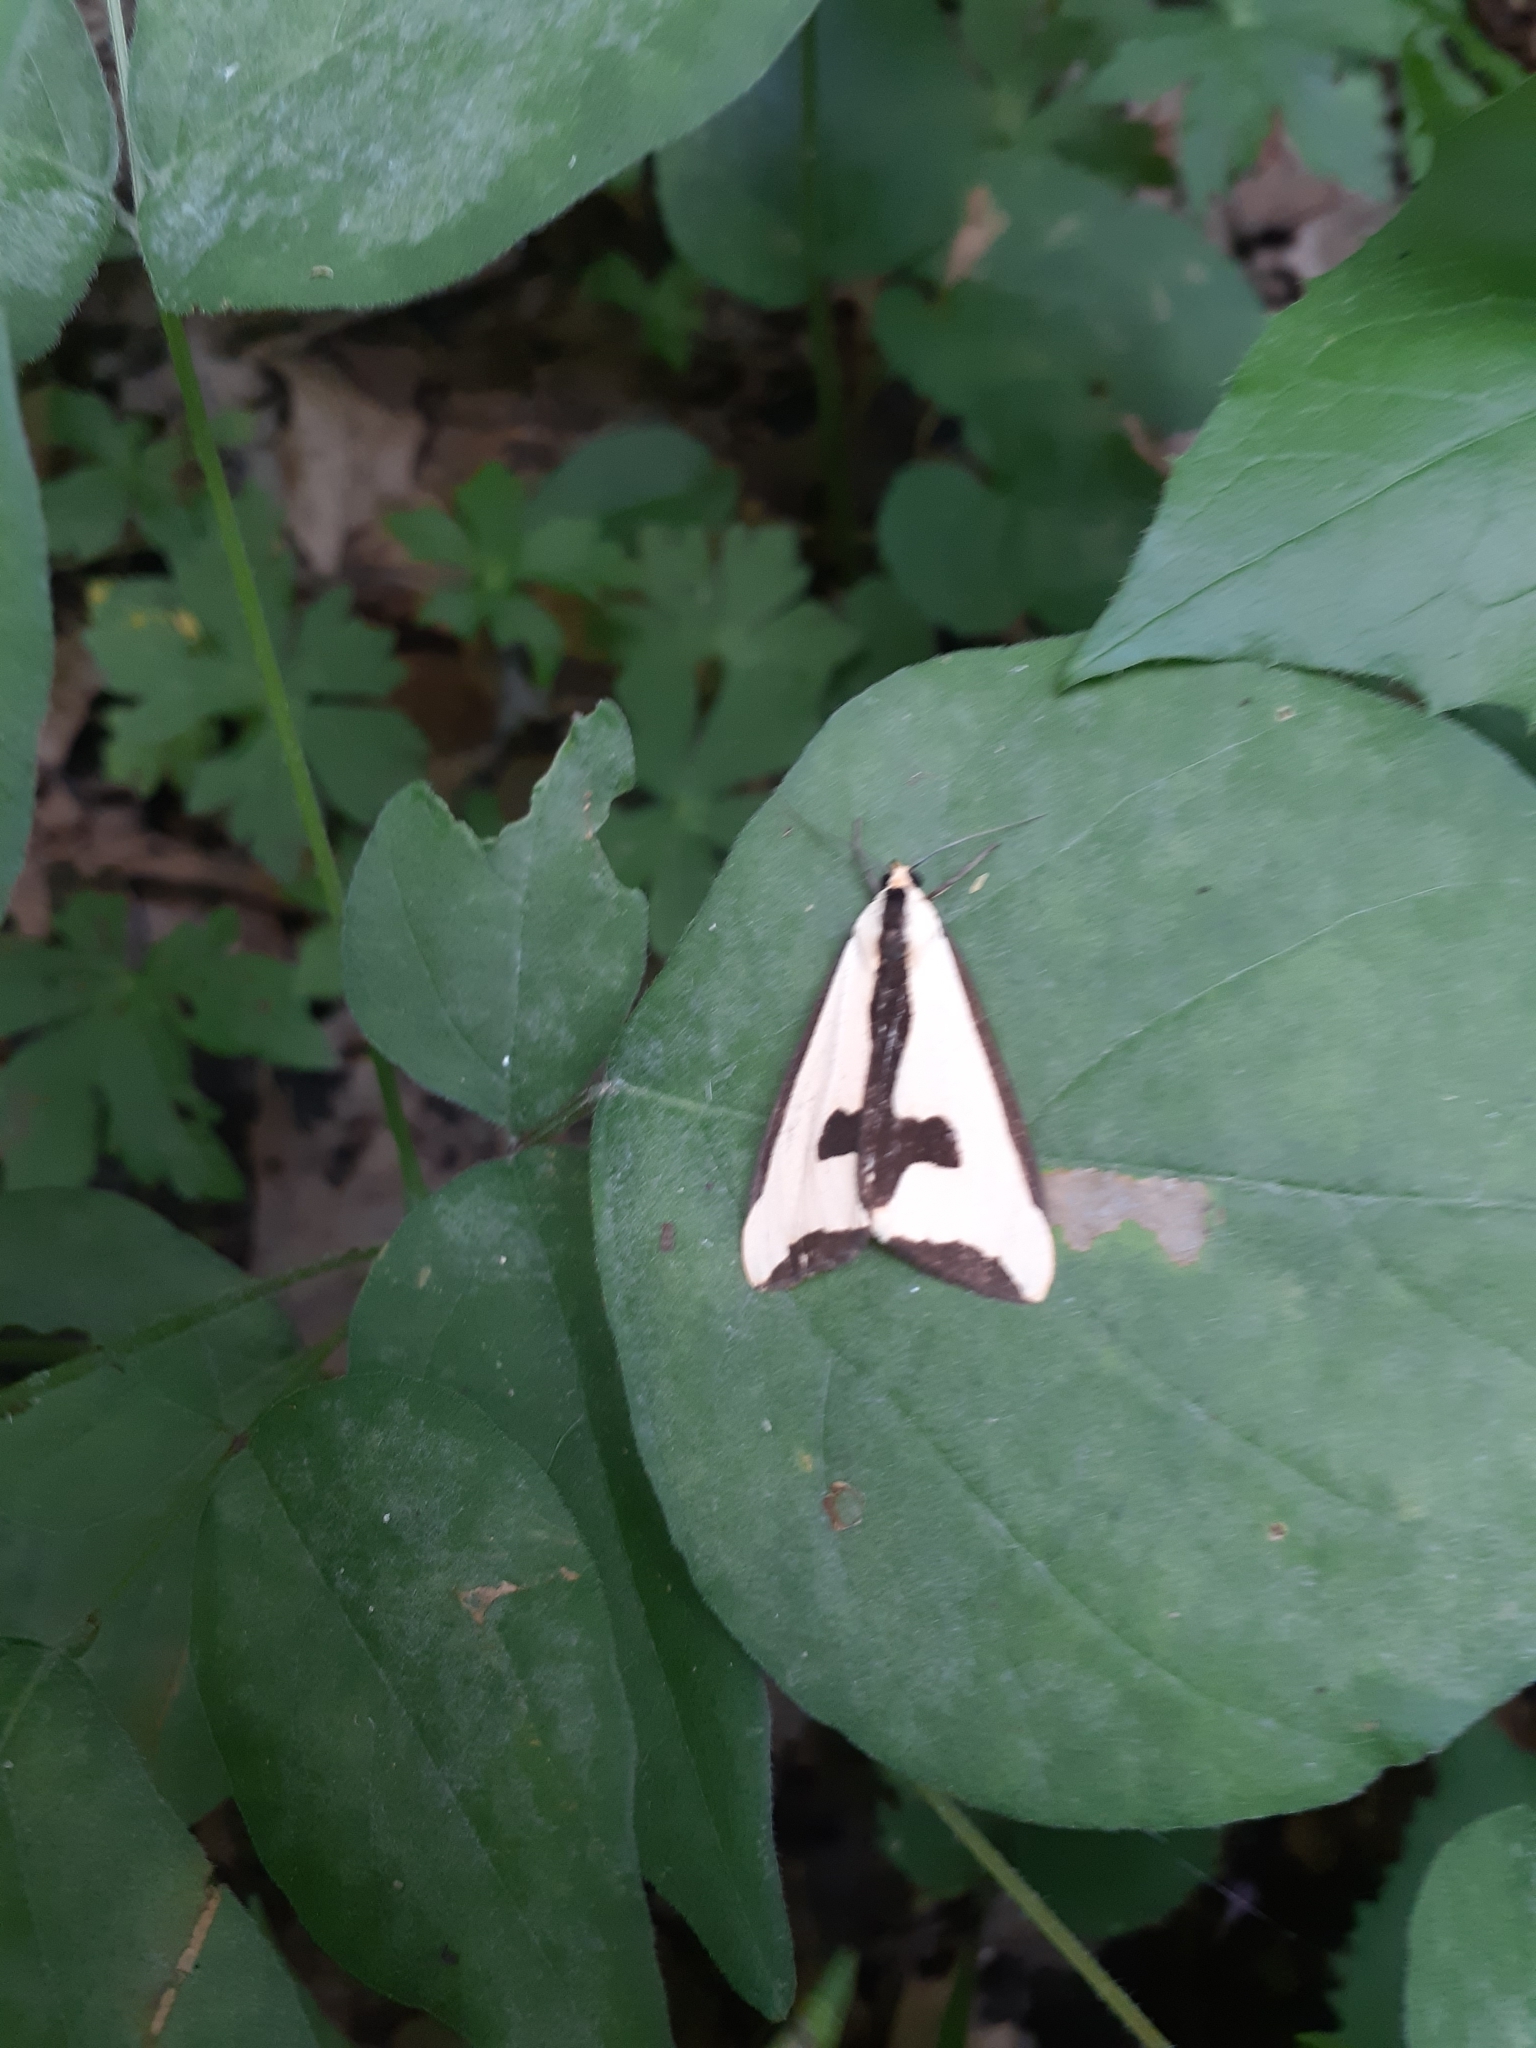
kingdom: Animalia
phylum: Arthropoda
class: Insecta
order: Lepidoptera
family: Erebidae
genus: Haploa
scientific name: Haploa clymene
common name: Clymene moth
